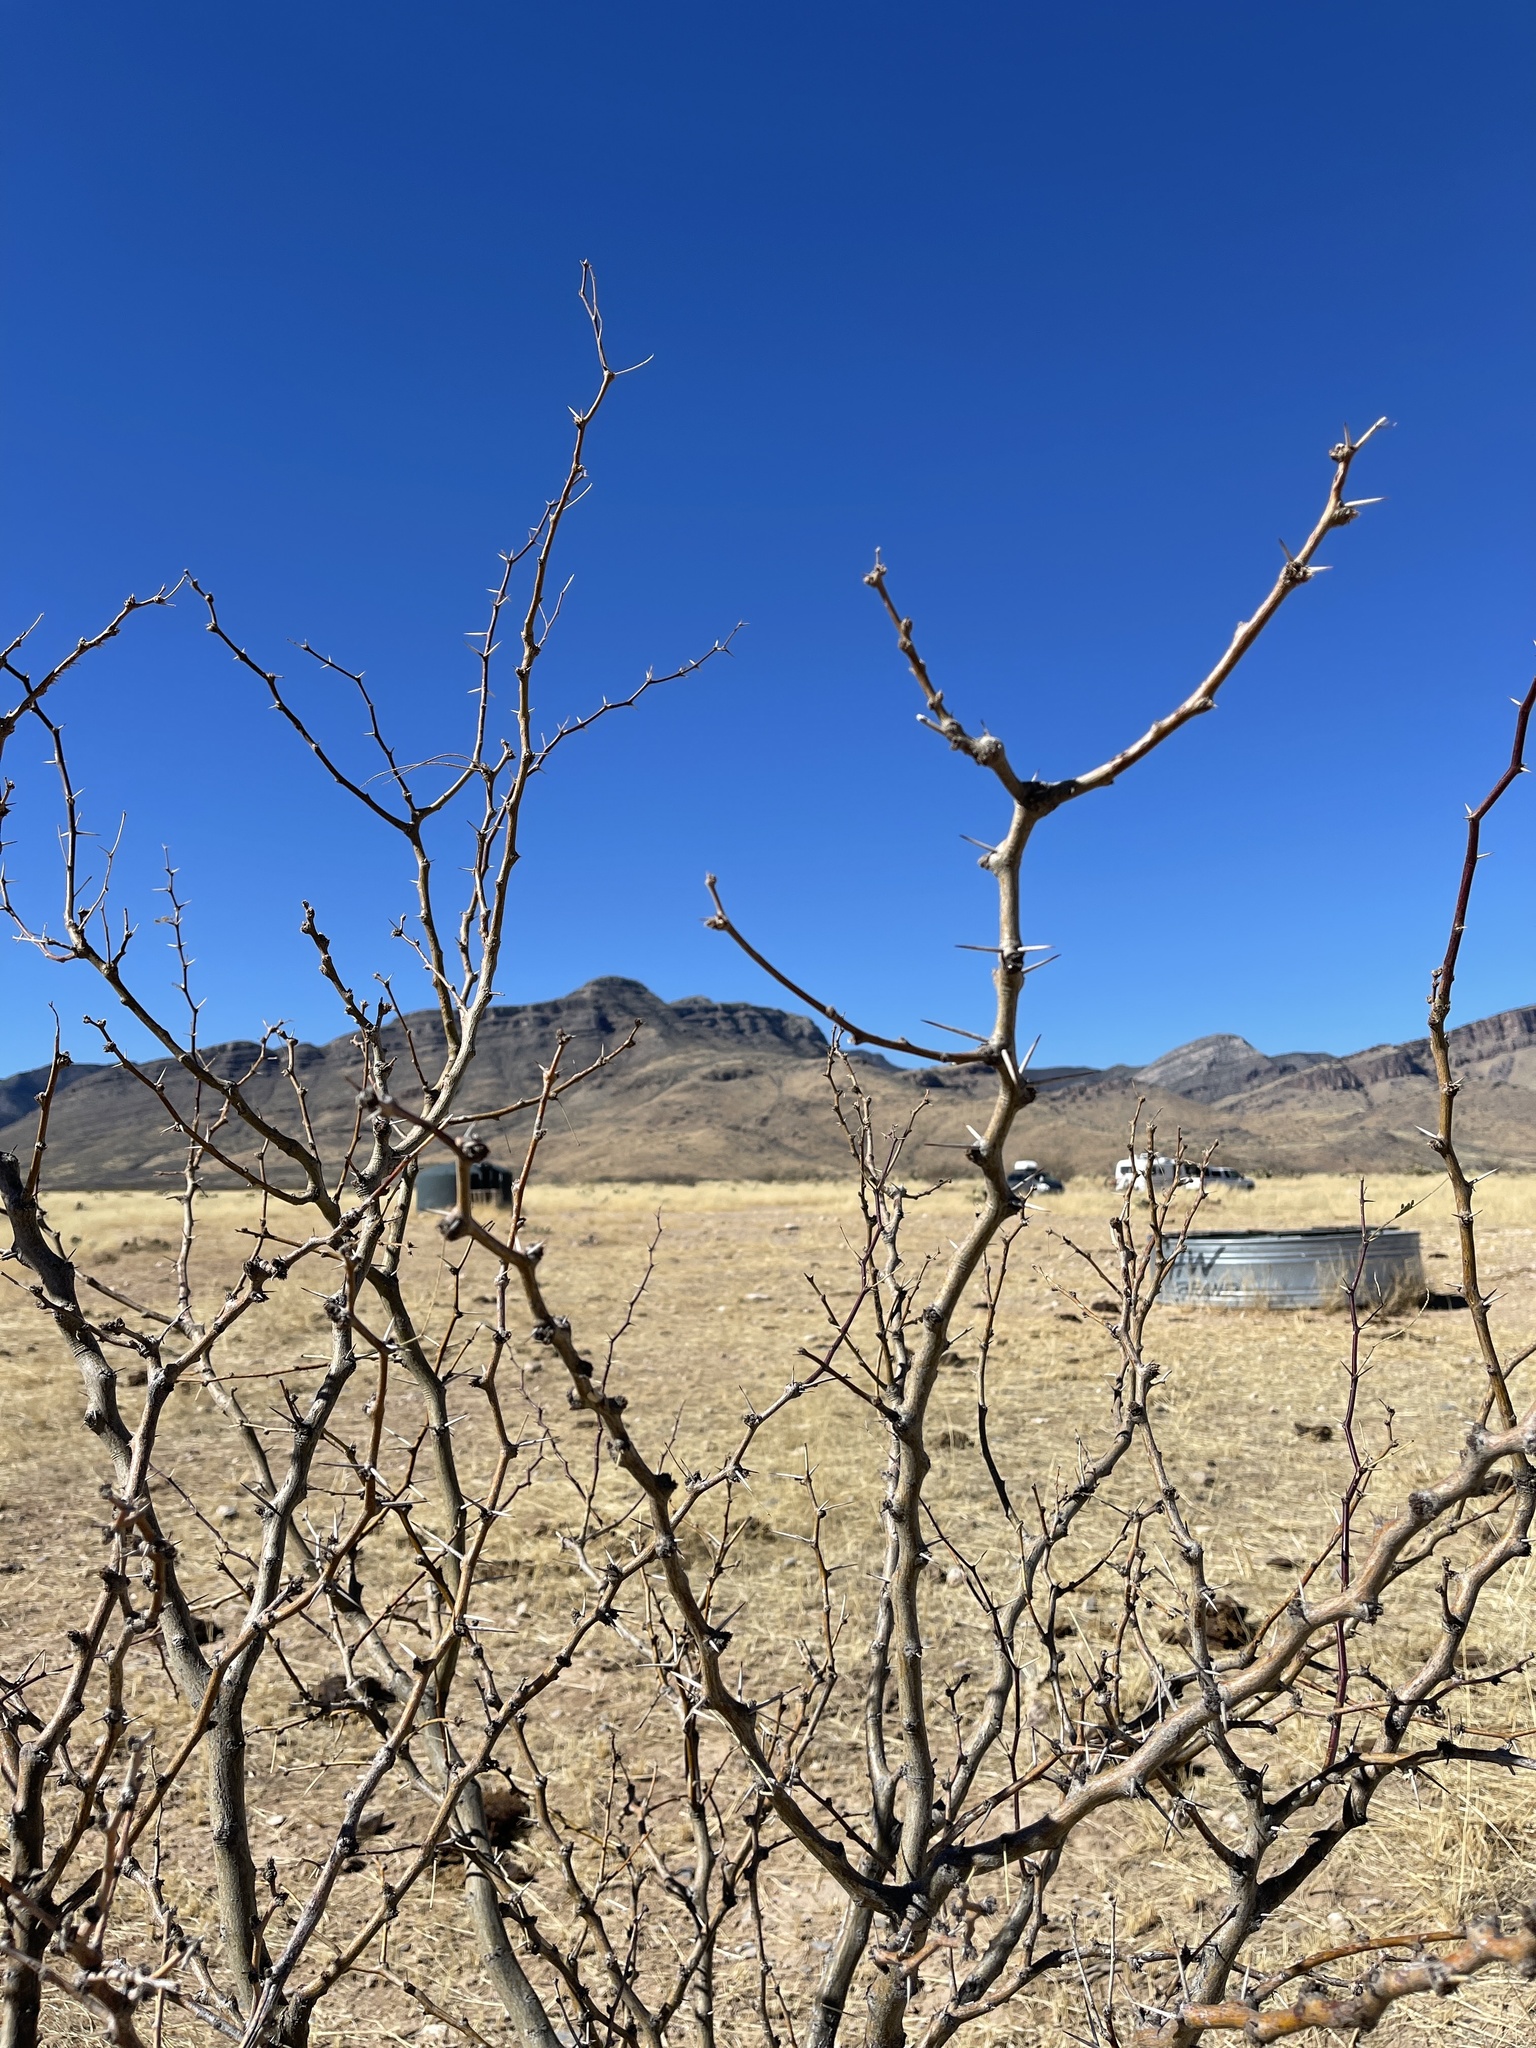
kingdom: Plantae
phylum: Tracheophyta
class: Magnoliopsida
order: Fabales
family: Fabaceae
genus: Prosopis
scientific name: Prosopis glandulosa
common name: Honey mesquite
